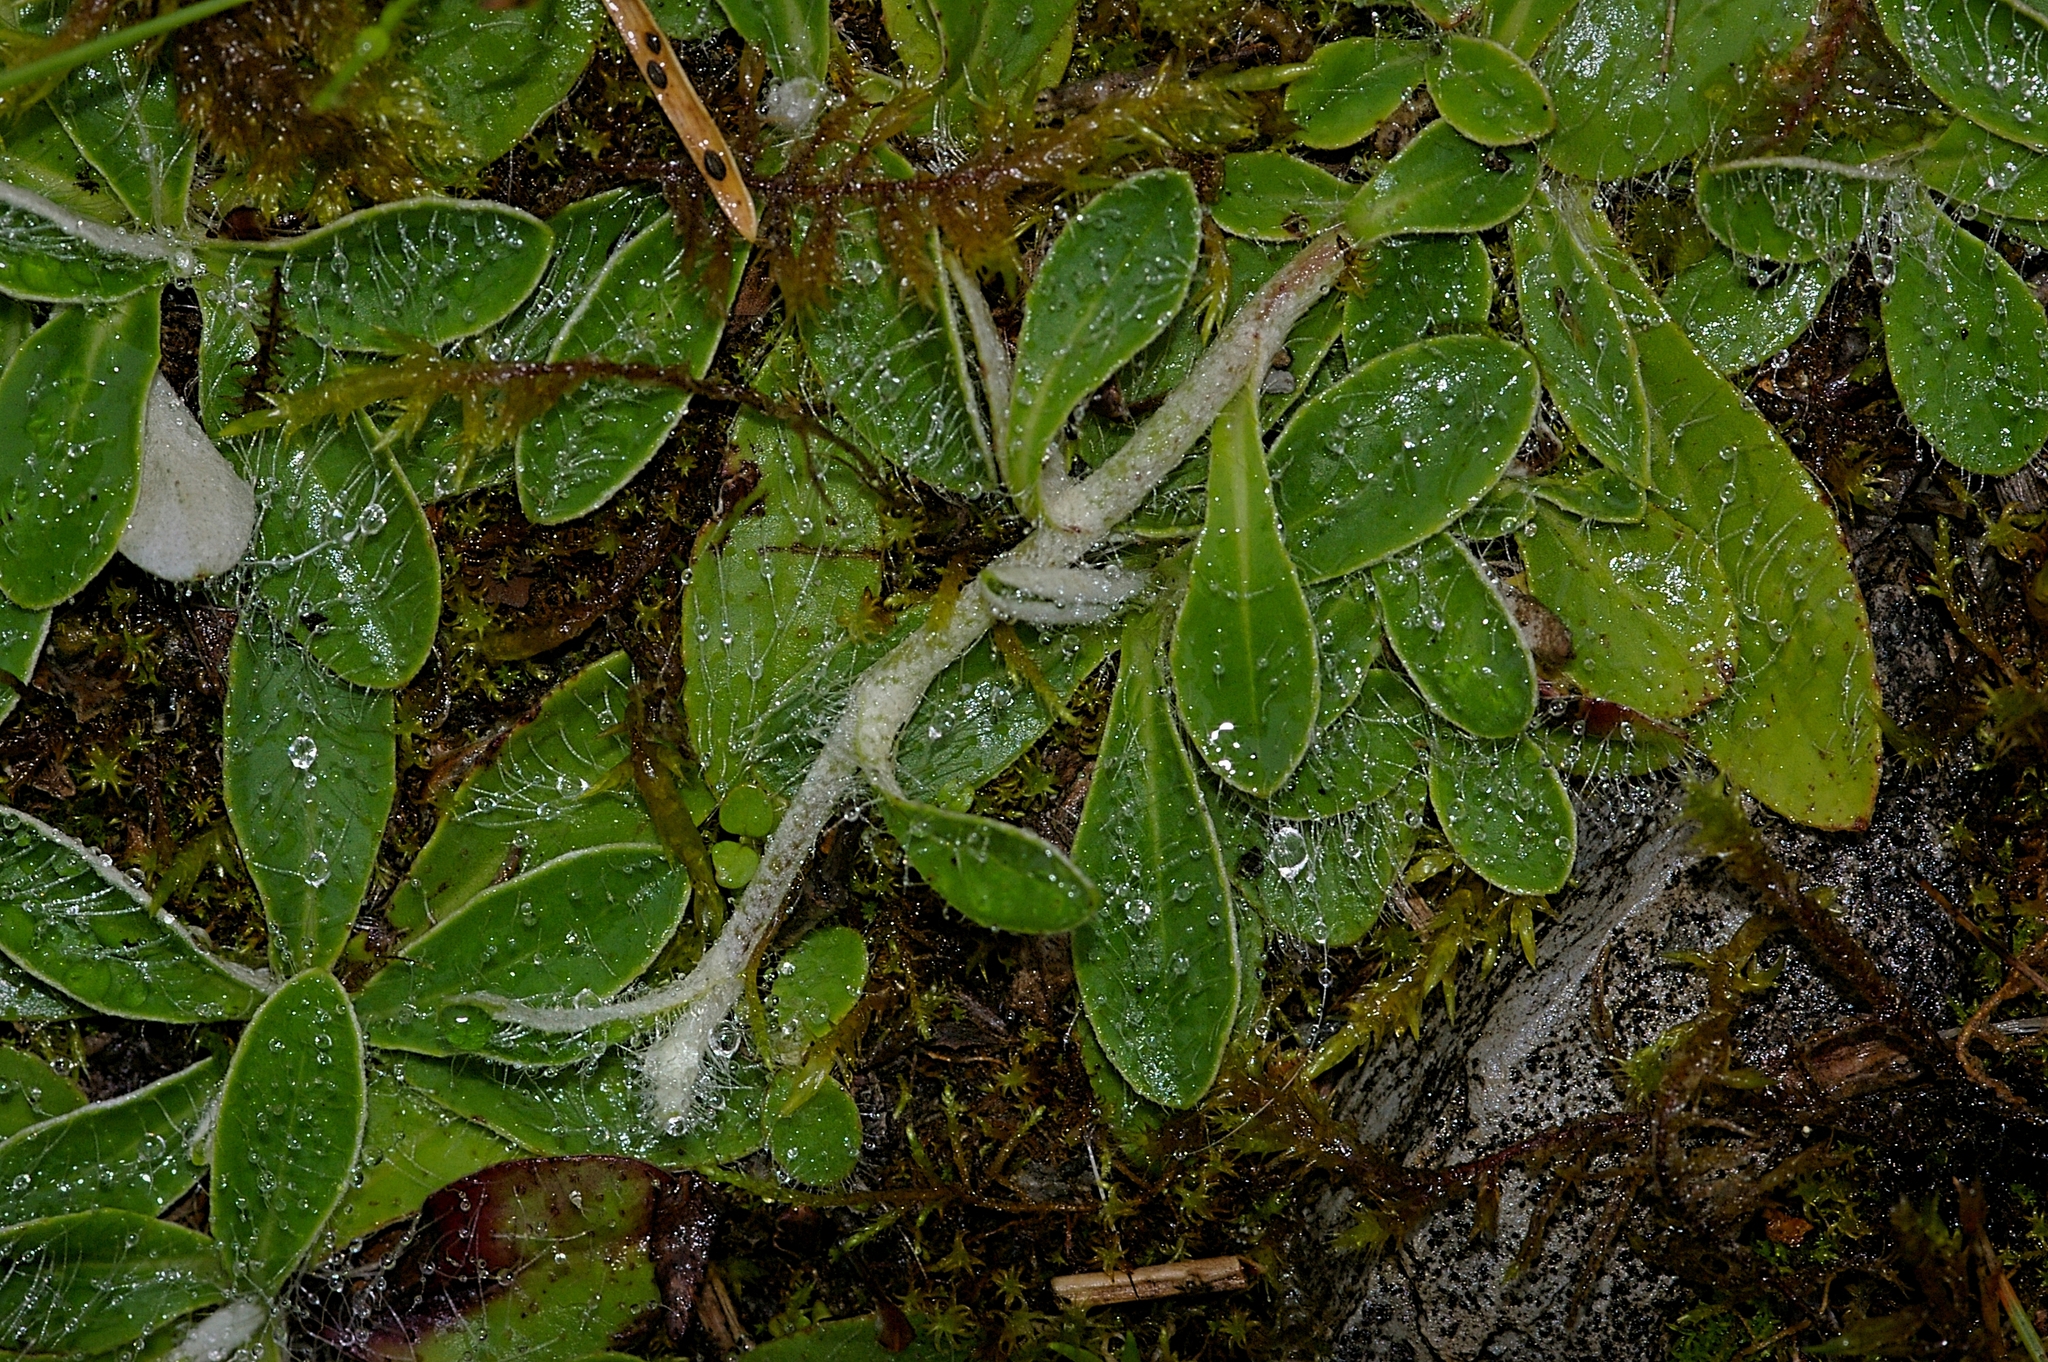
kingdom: Plantae
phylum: Tracheophyta
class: Magnoliopsida
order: Asterales
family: Asteraceae
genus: Pilosella
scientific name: Pilosella officinarum
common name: Mouse-ear hawkweed
